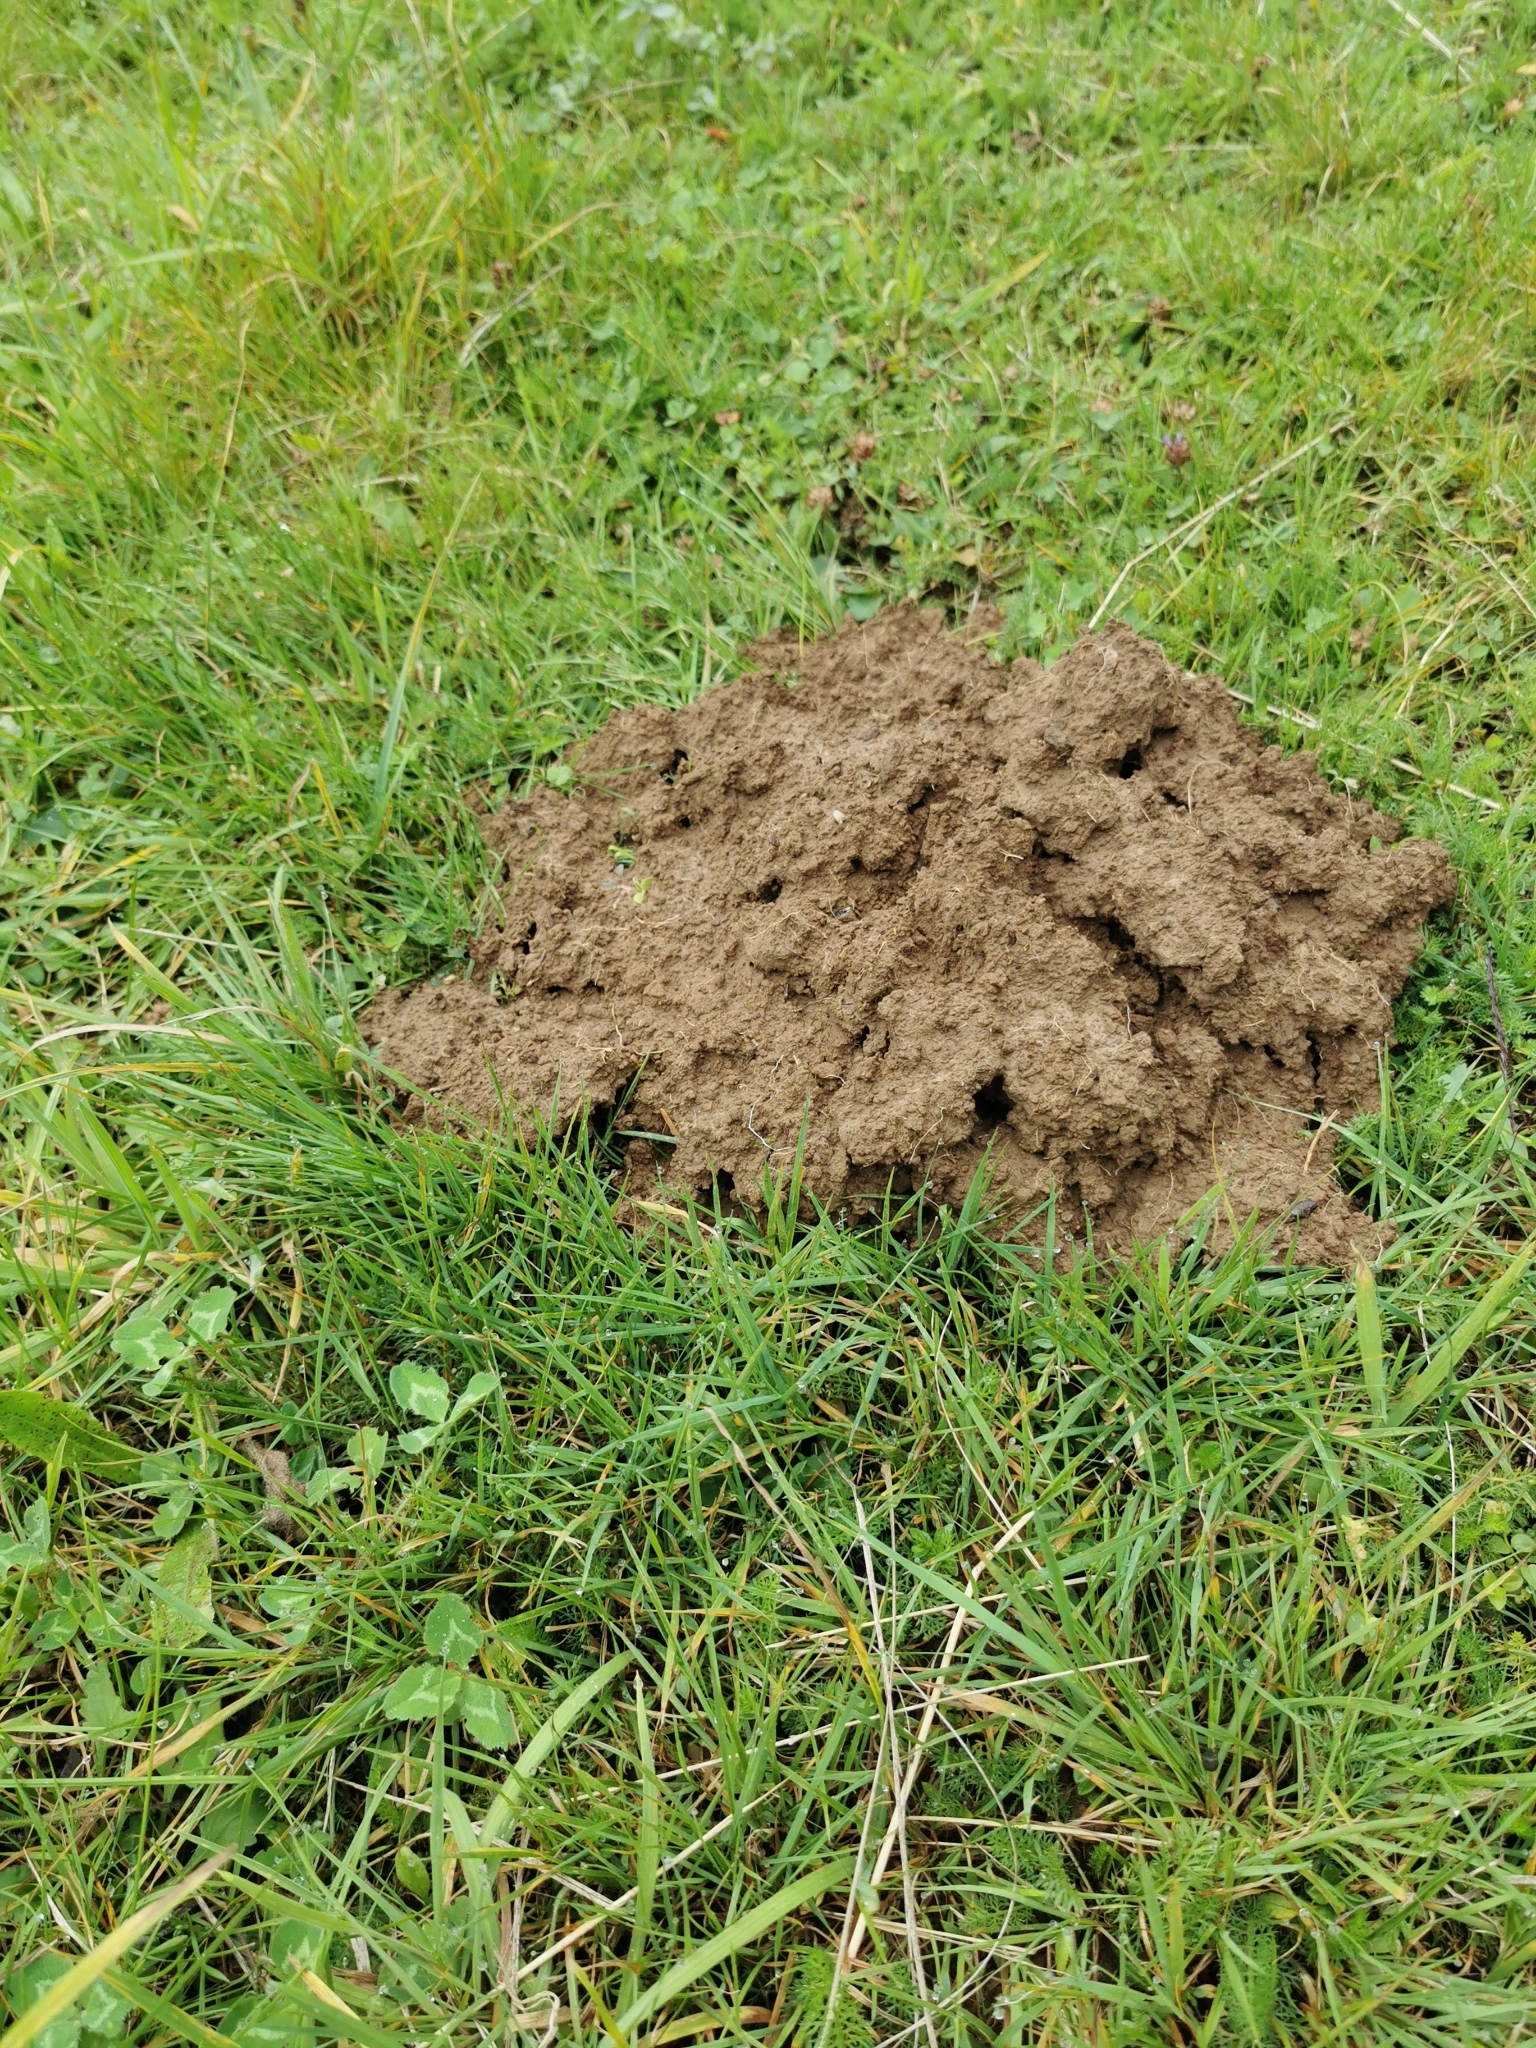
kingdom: Animalia
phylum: Chordata
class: Mammalia
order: Soricomorpha
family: Talpidae
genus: Talpa
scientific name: Talpa europaea
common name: European mole
